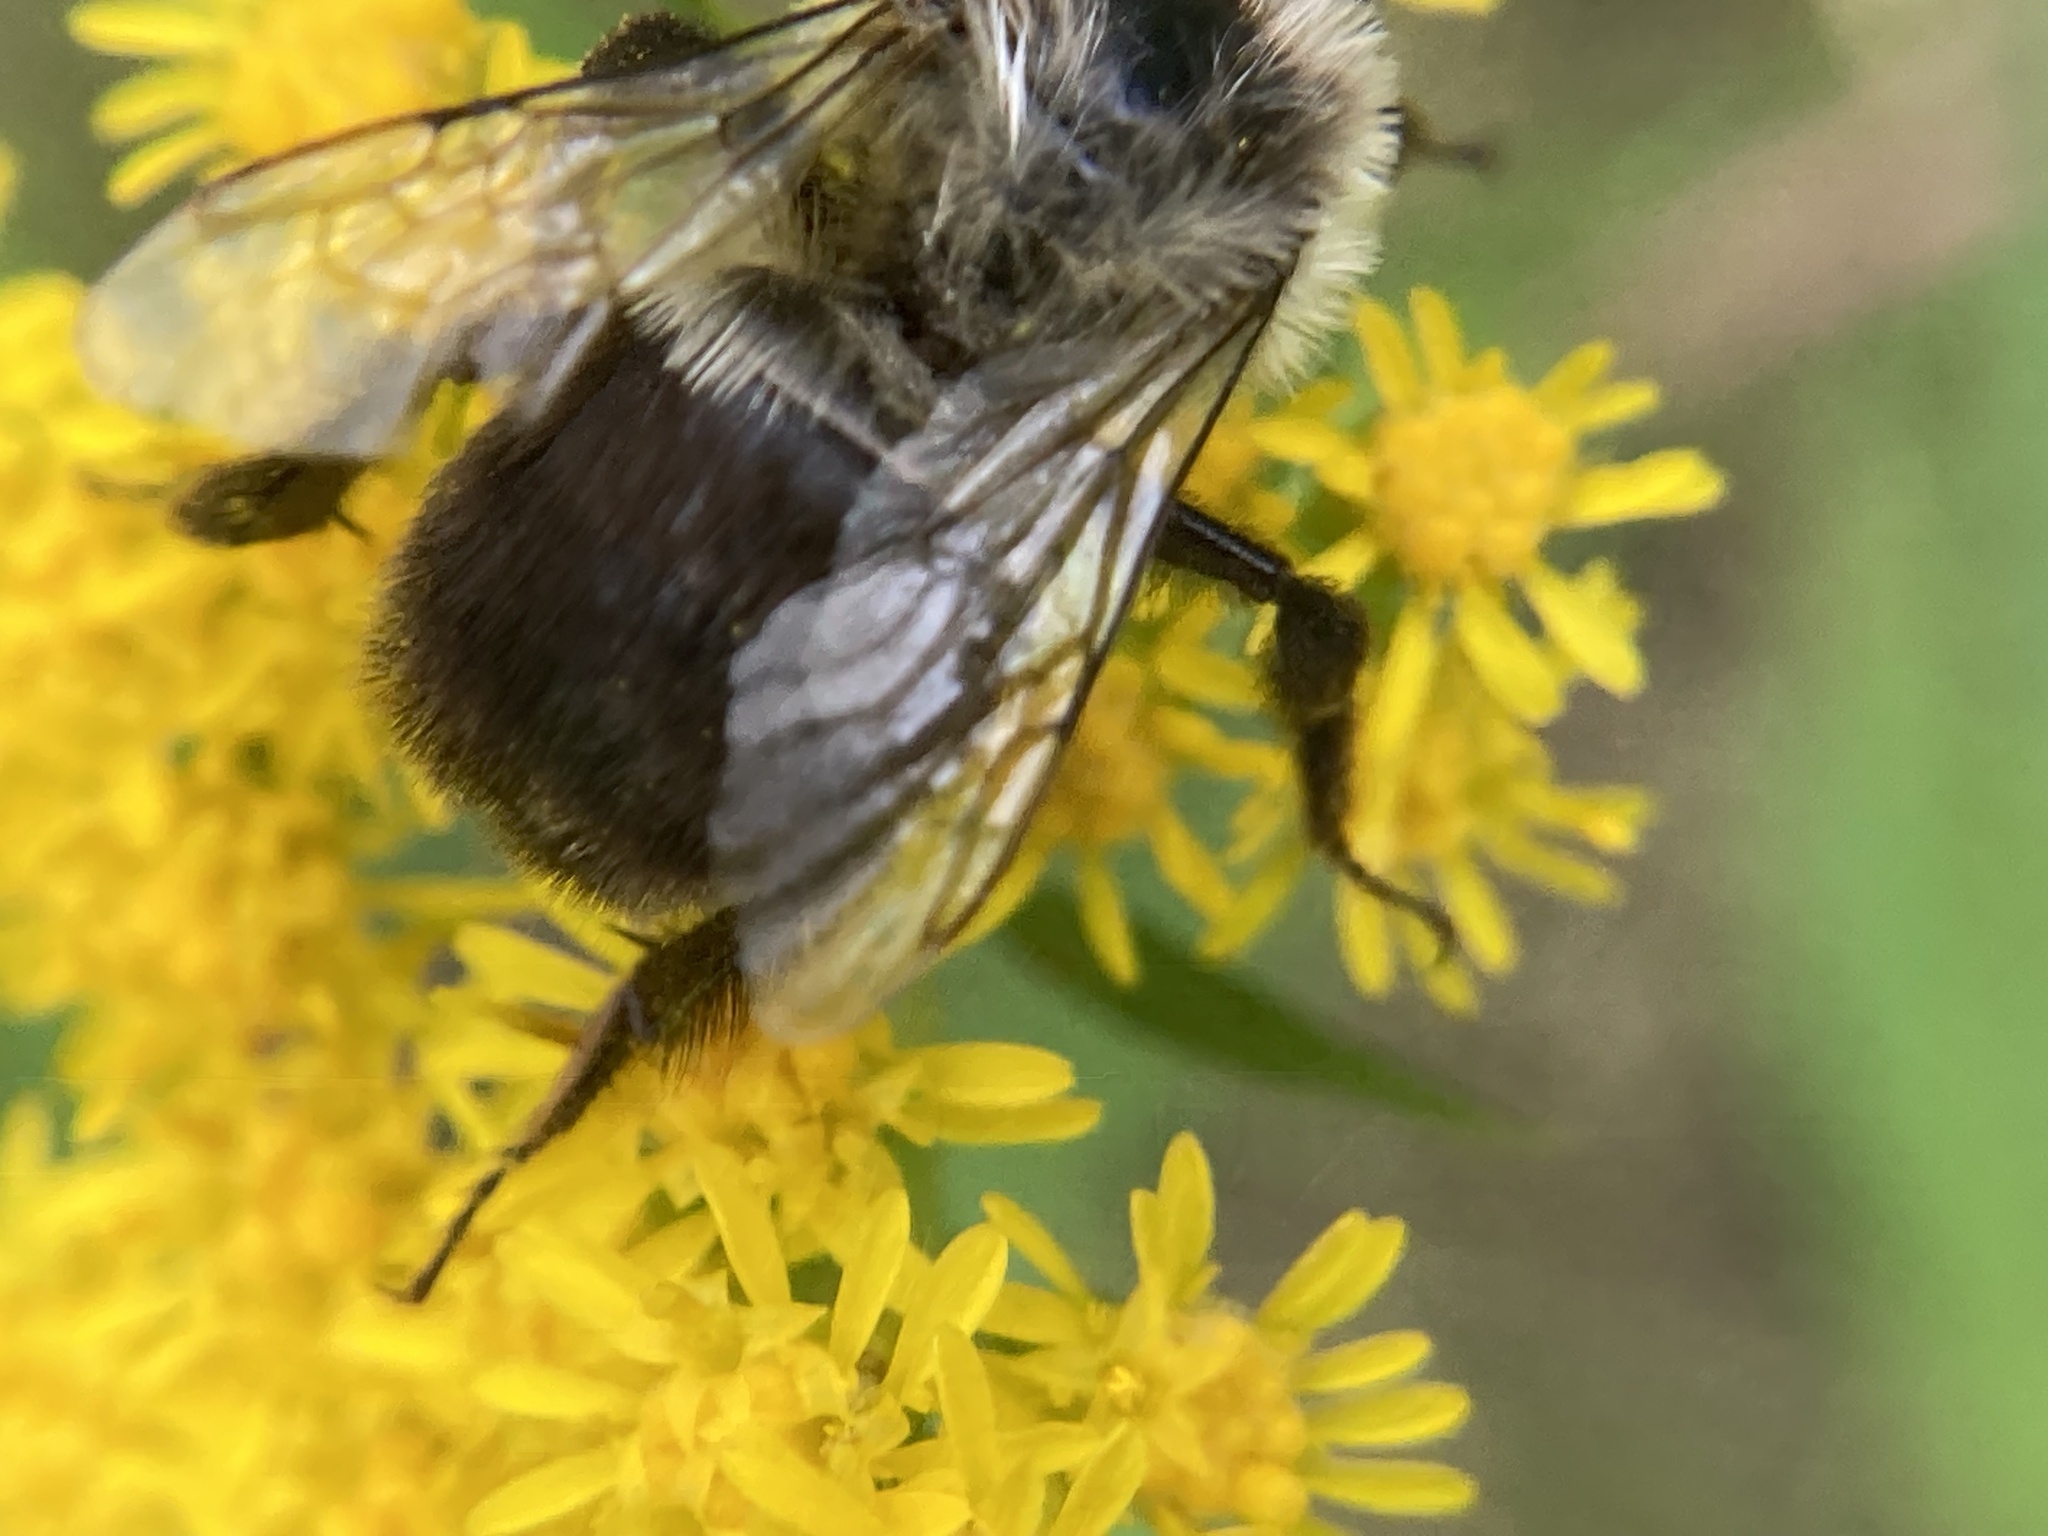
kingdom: Animalia
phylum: Arthropoda
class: Insecta
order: Hymenoptera
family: Apidae
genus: Bombus
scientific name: Bombus impatiens
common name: Common eastern bumble bee
